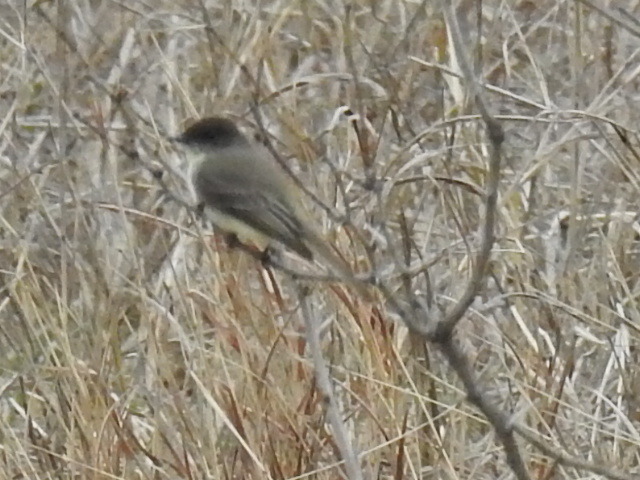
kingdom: Animalia
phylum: Chordata
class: Aves
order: Passeriformes
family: Tyrannidae
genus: Sayornis
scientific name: Sayornis phoebe
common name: Eastern phoebe
